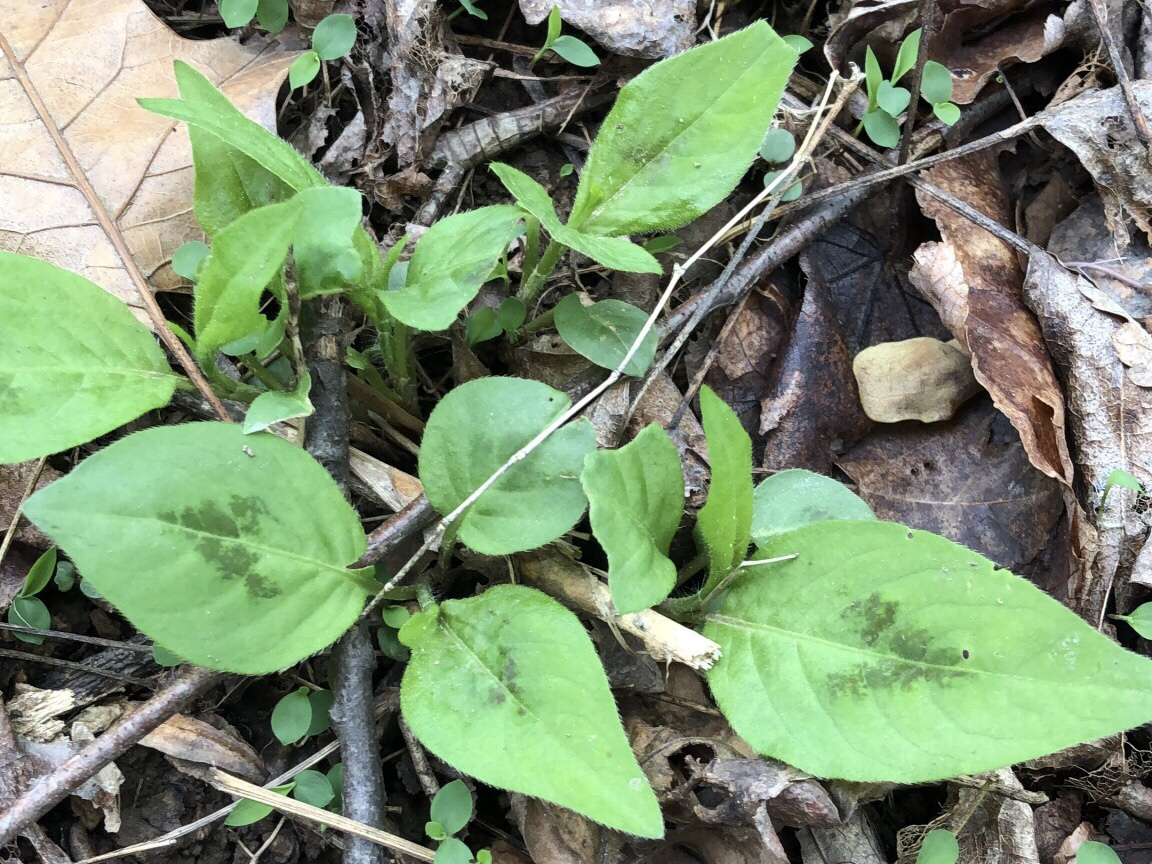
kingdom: Plantae
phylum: Tracheophyta
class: Magnoliopsida
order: Caryophyllales
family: Polygonaceae
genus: Persicaria
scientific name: Persicaria virginiana
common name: Jumpseed
